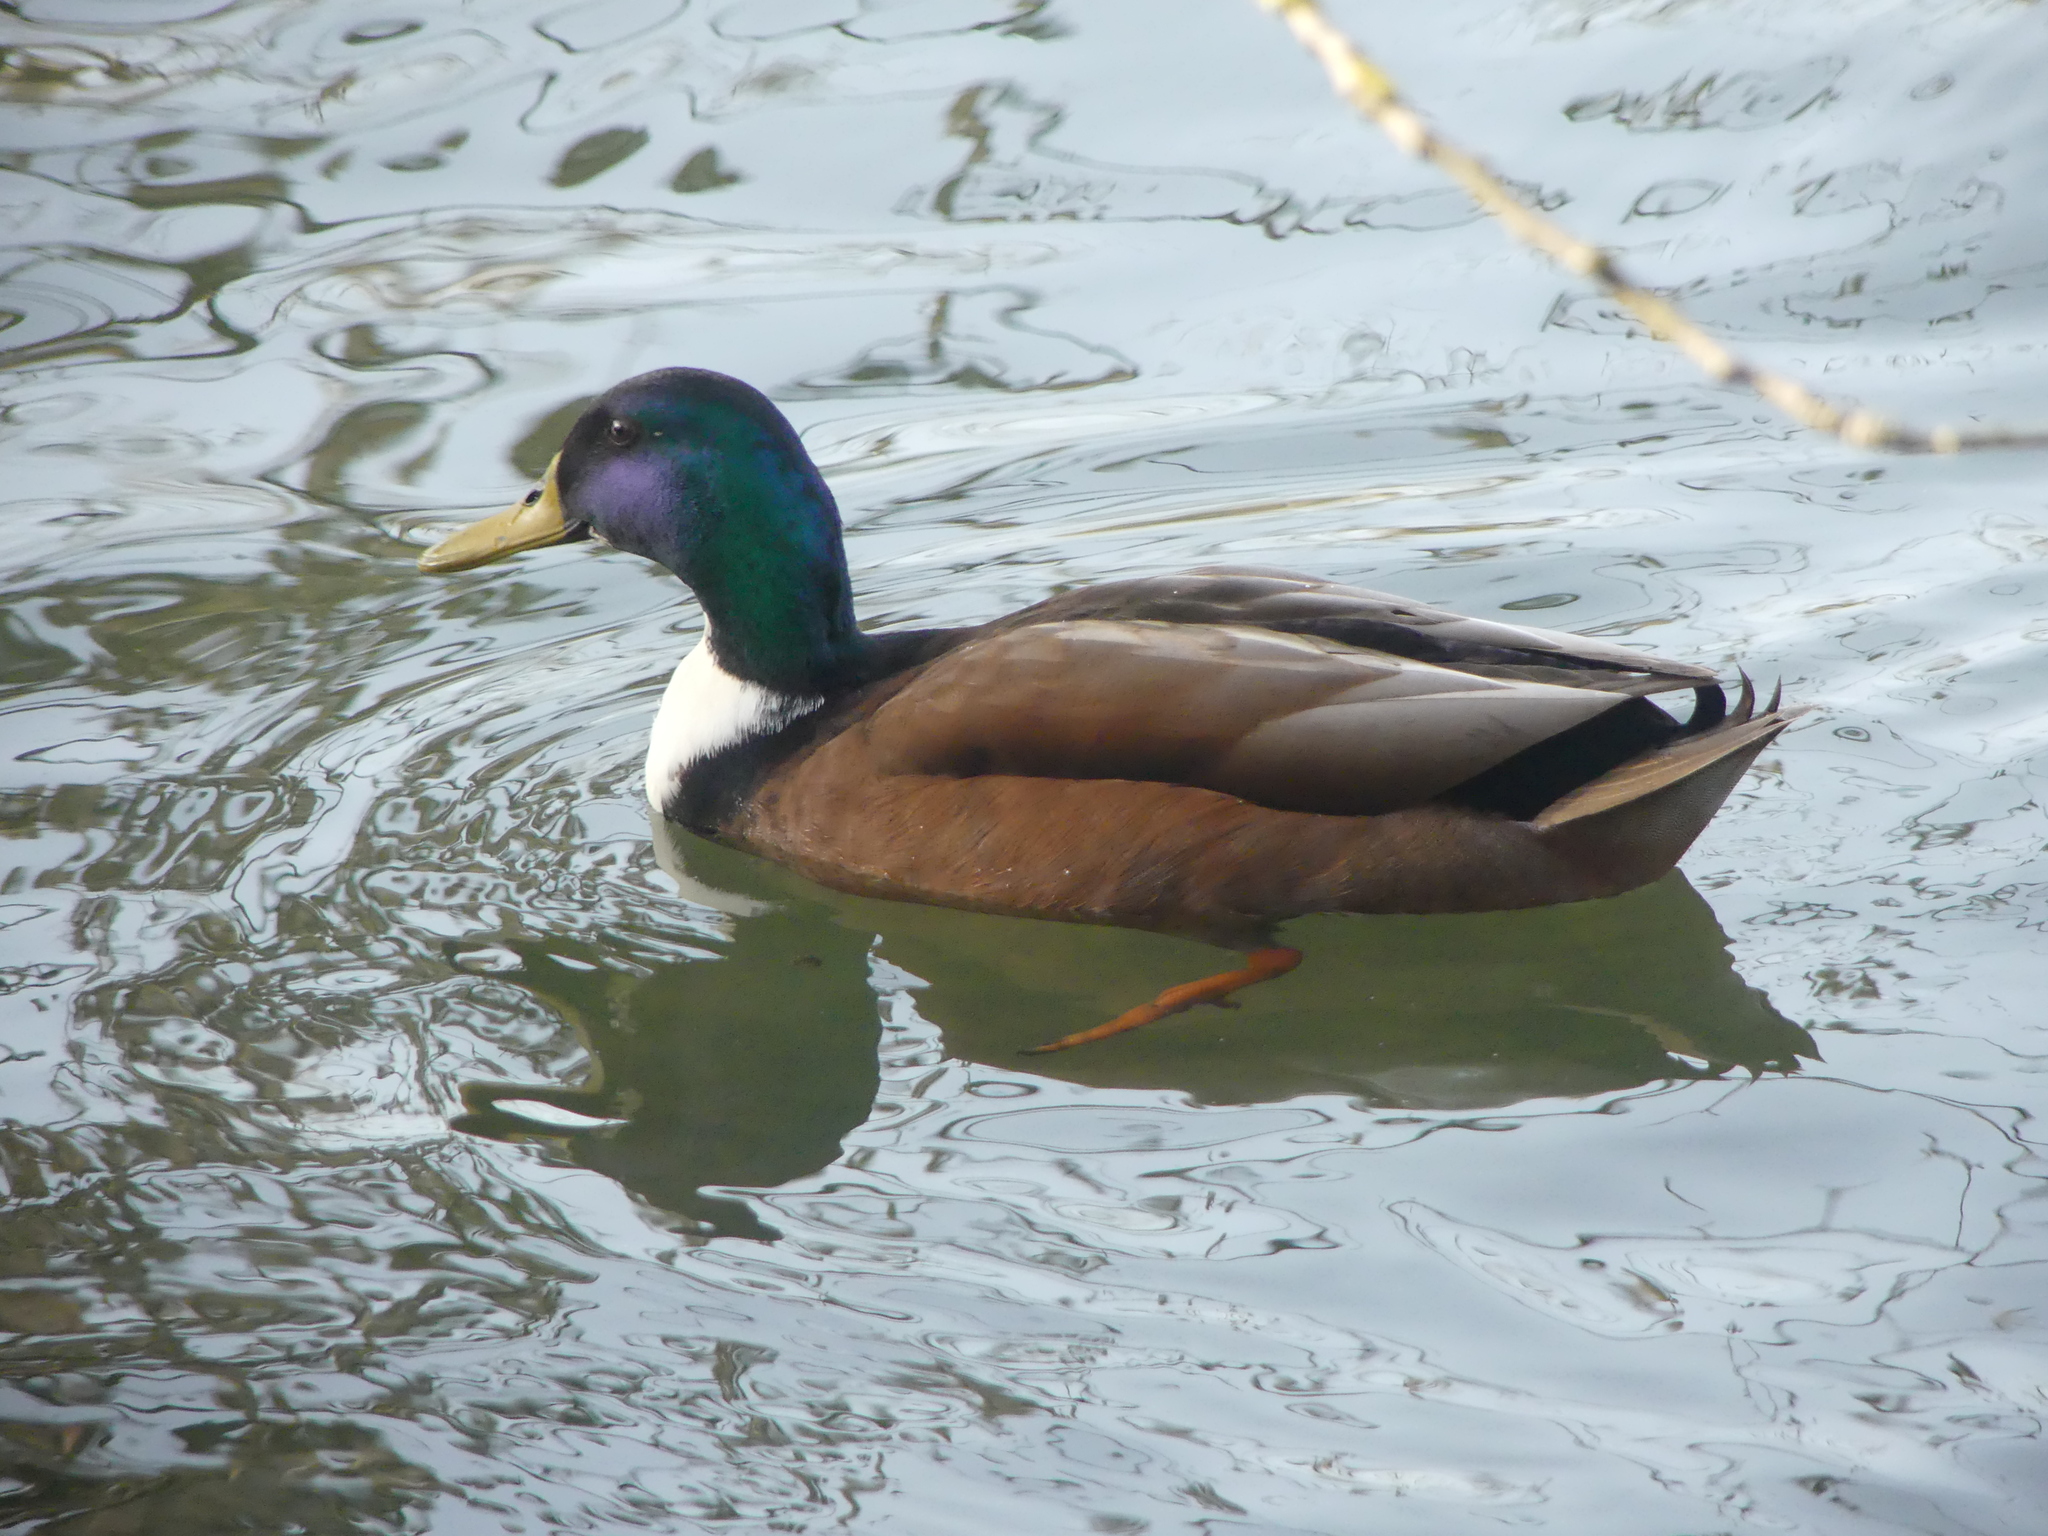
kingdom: Animalia
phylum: Chordata
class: Aves
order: Anseriformes
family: Anatidae
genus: Anas
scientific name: Anas platyrhynchos
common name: Mallard
